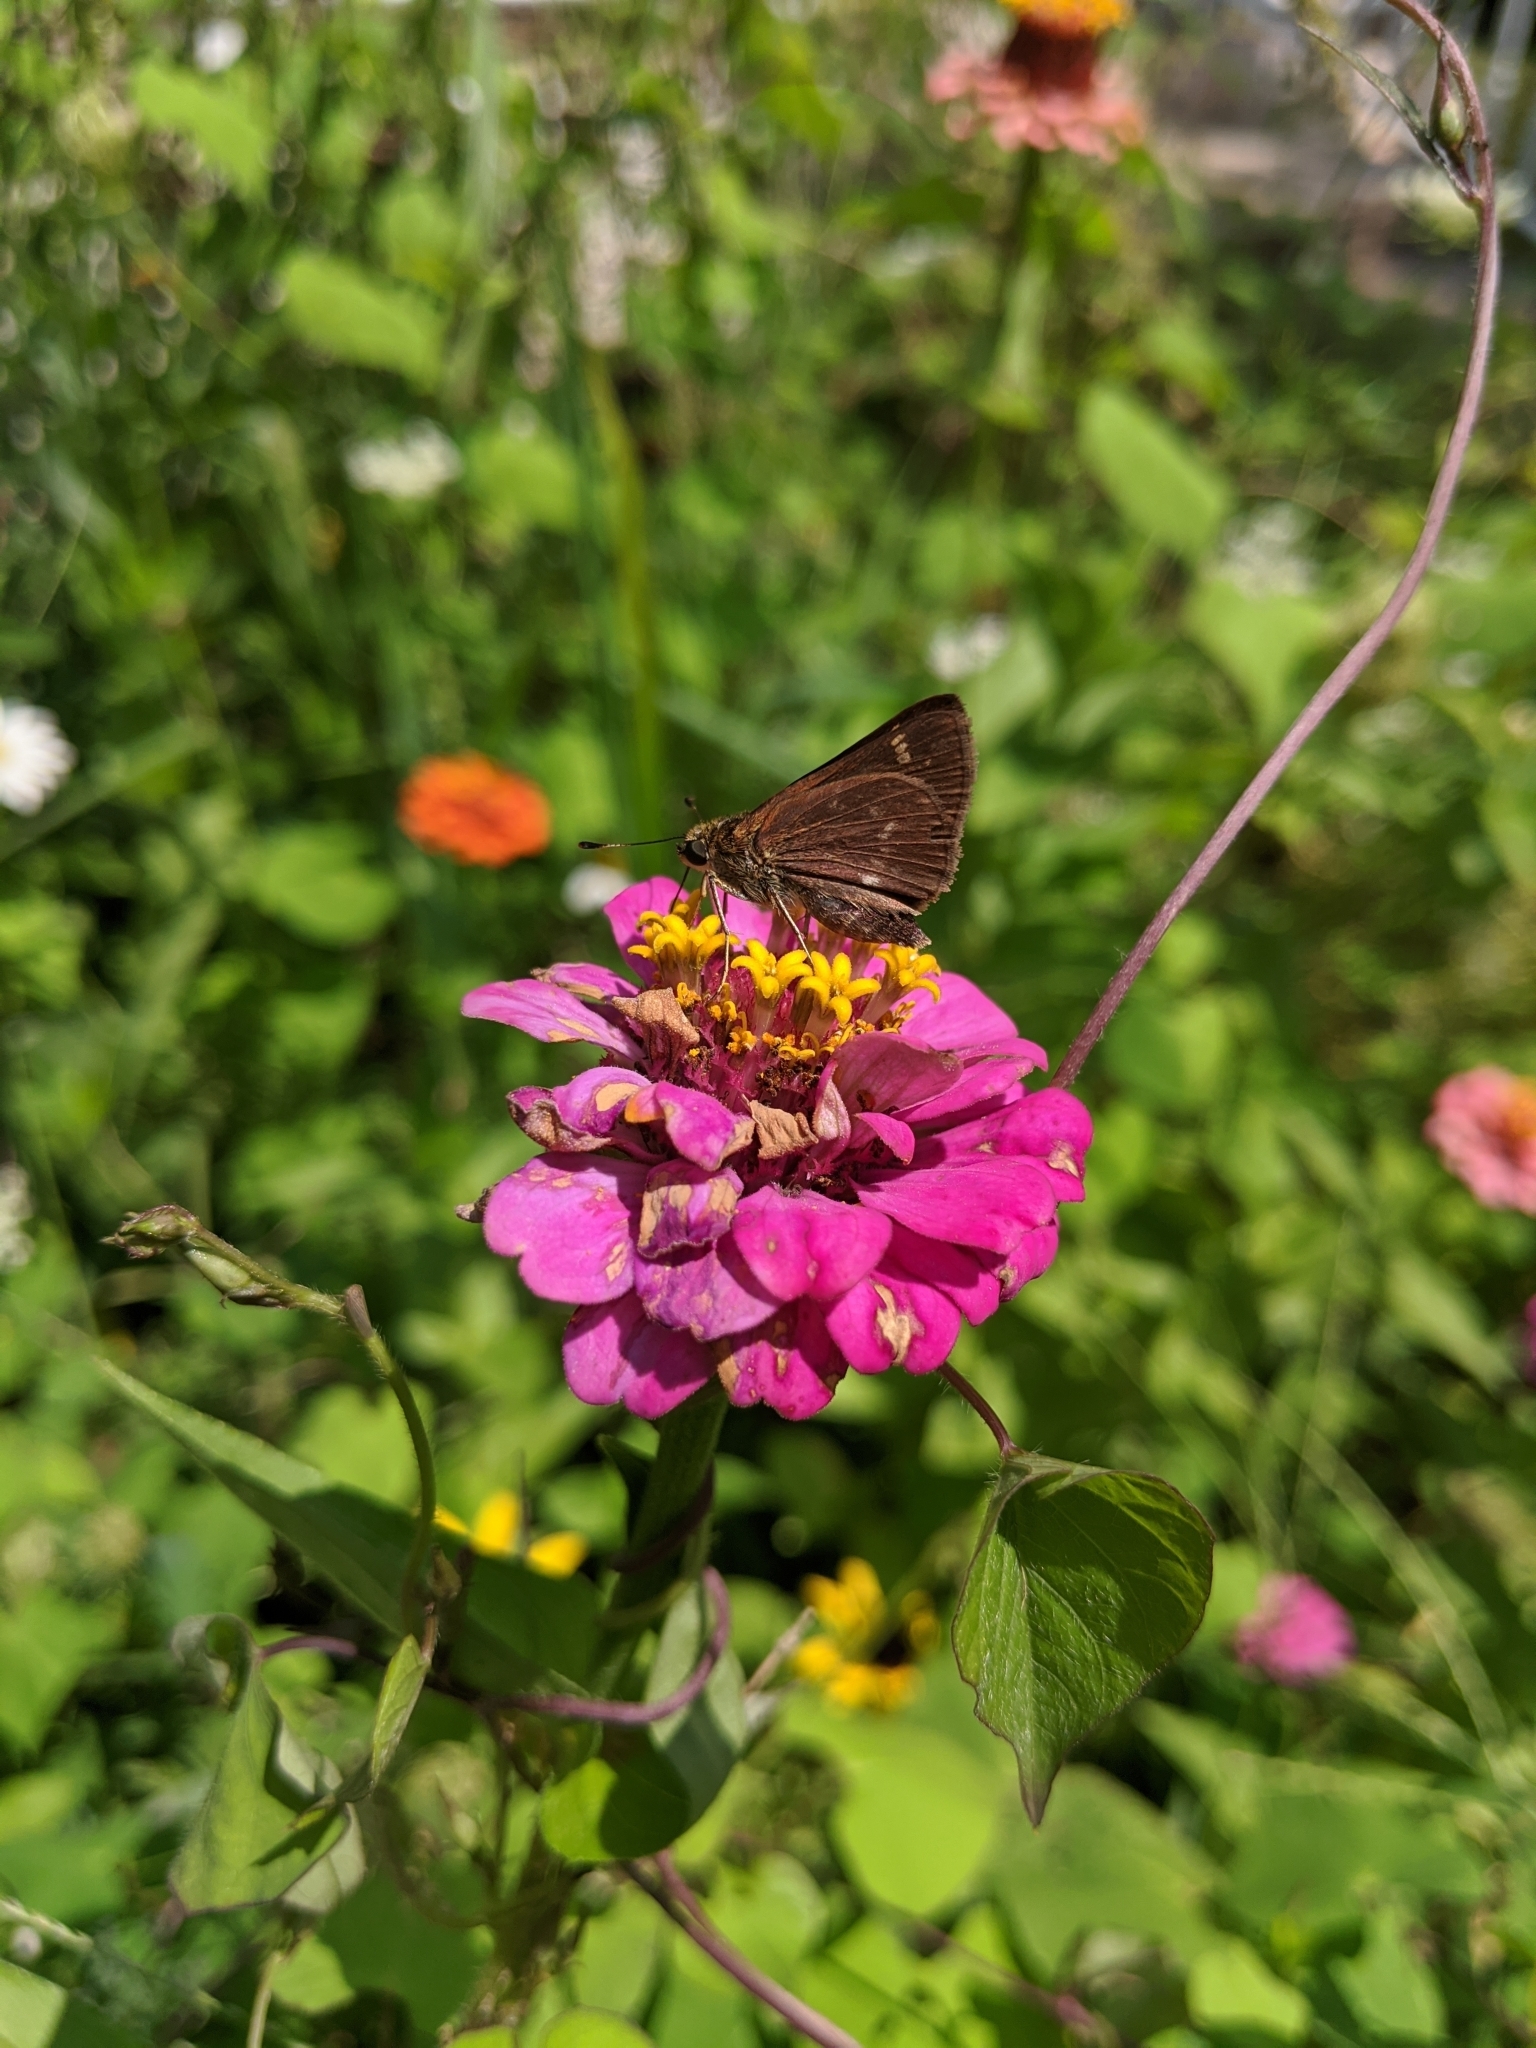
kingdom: Animalia
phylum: Arthropoda
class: Insecta
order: Lepidoptera
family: Hesperiidae
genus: Vernia
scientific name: Vernia verna
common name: Little glassywing
